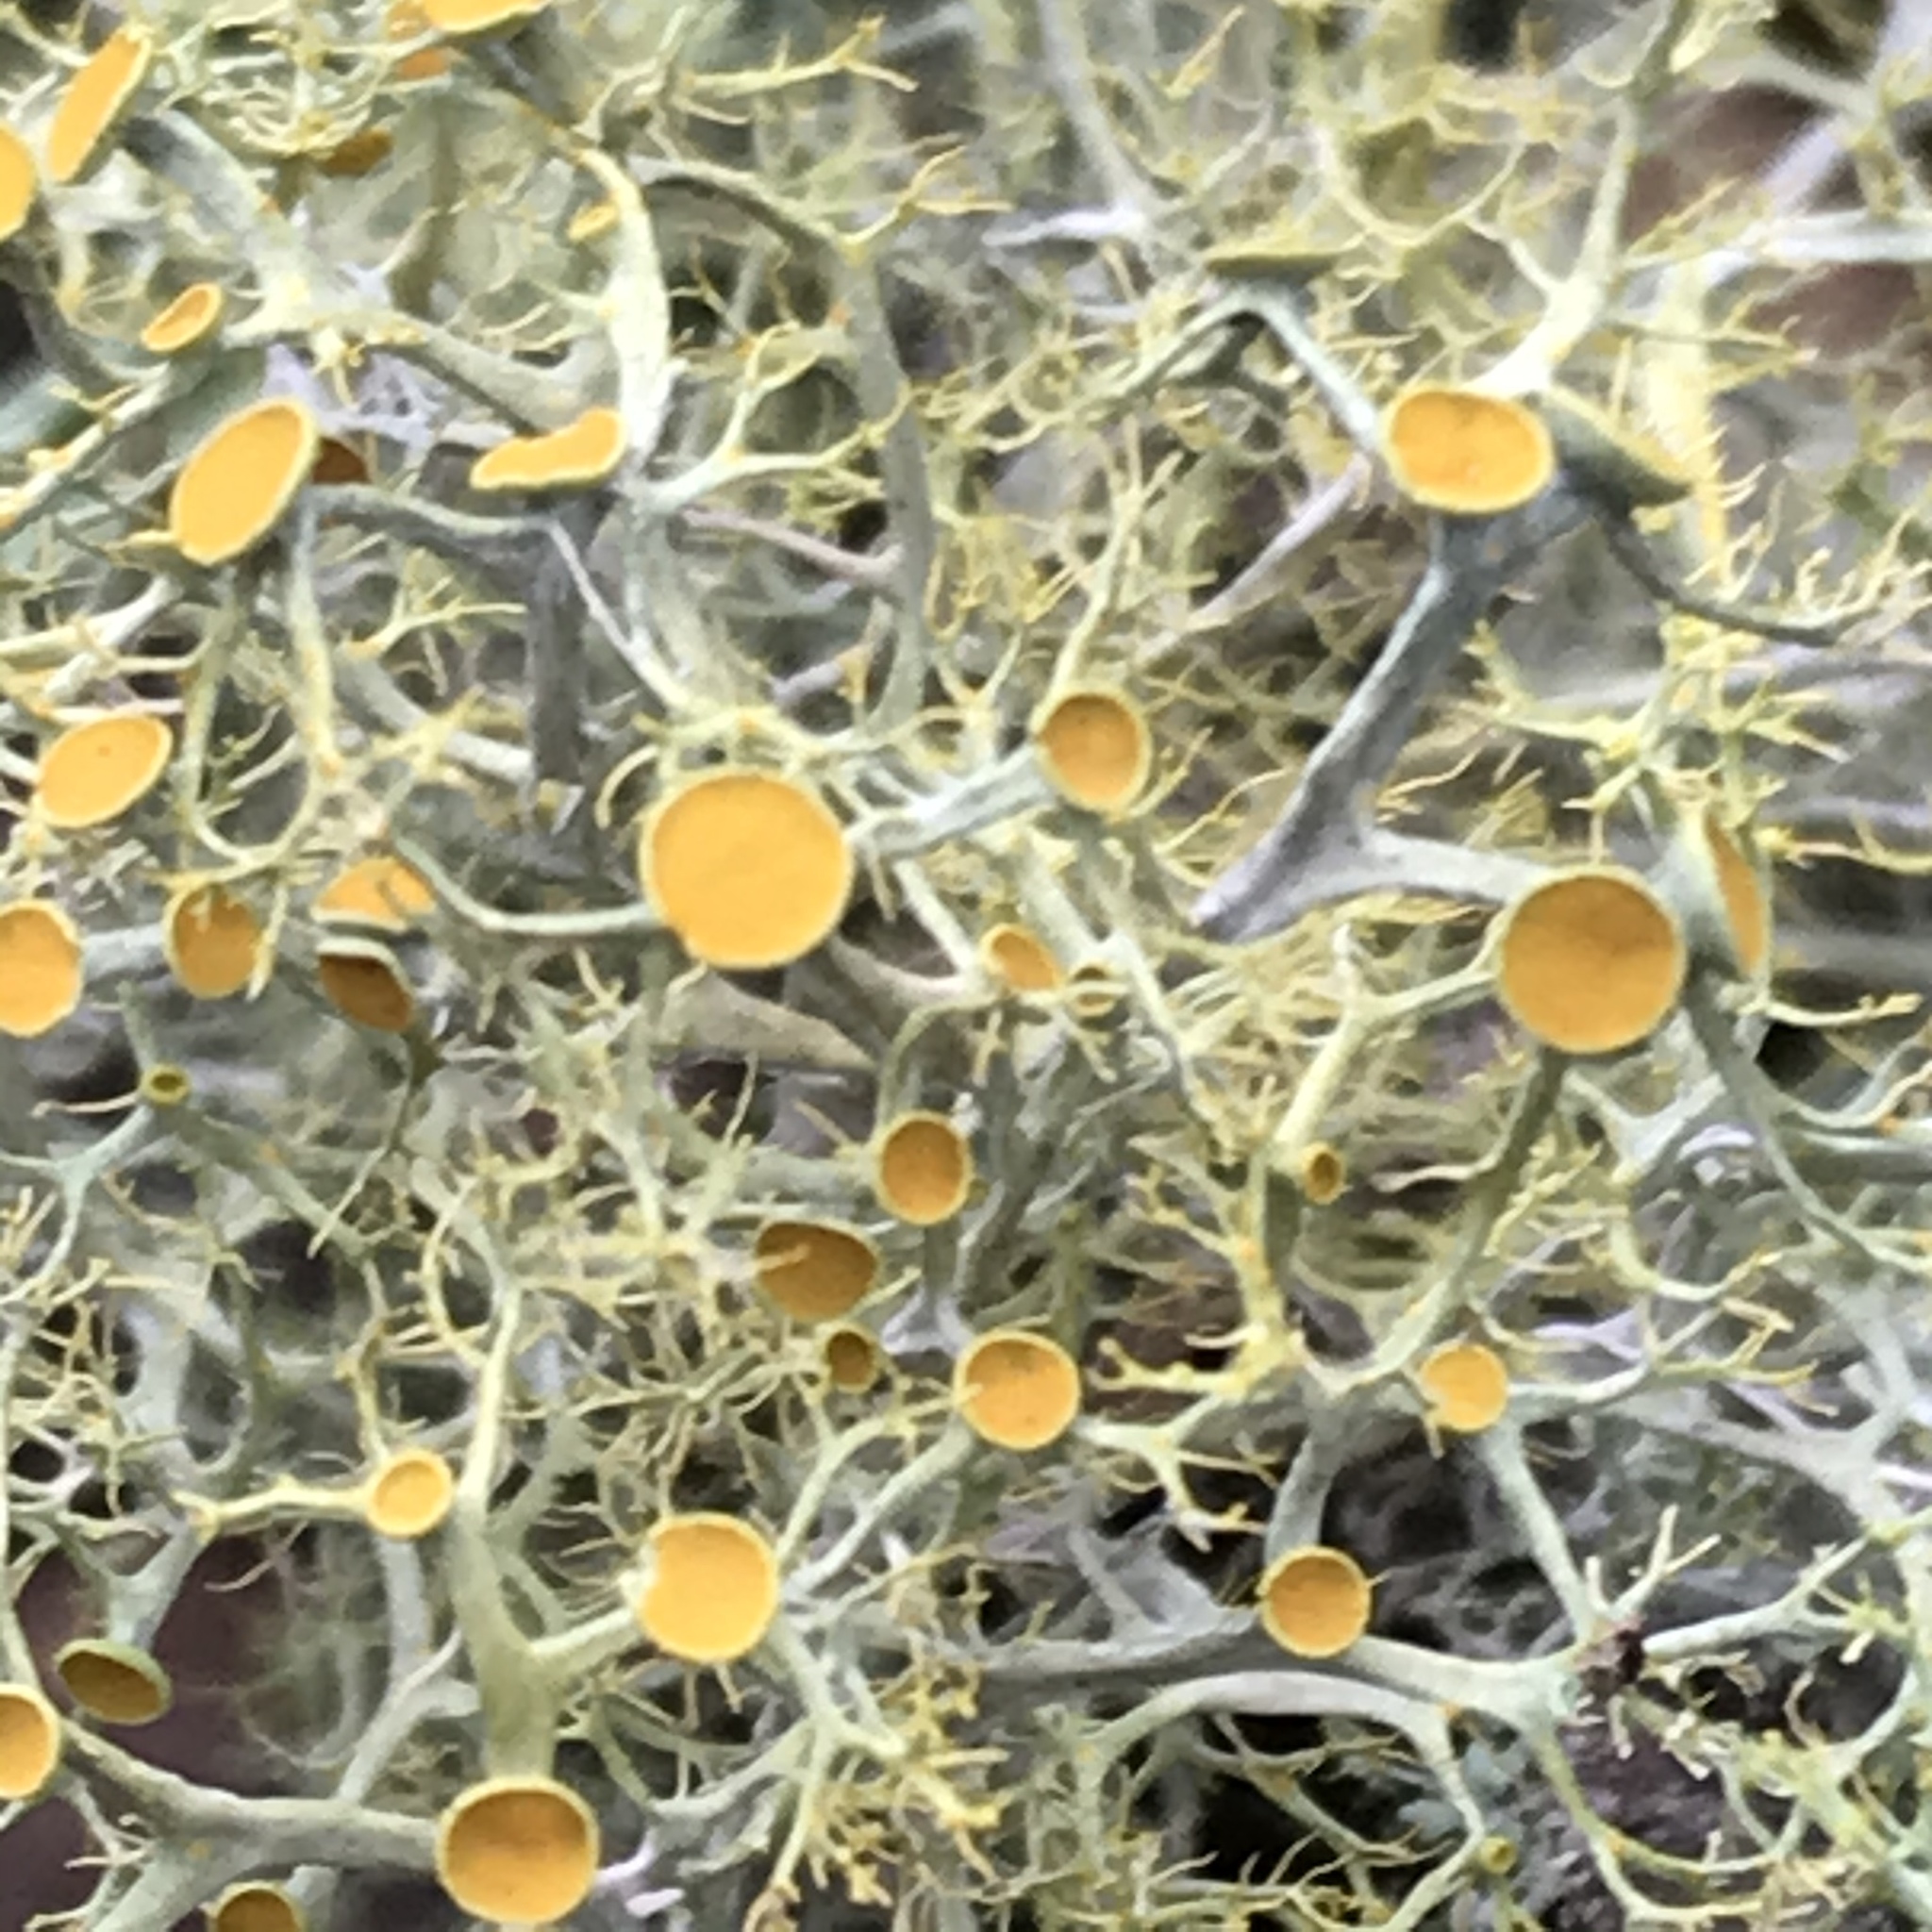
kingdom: Fungi
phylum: Ascomycota
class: Lecanoromycetes
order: Teloschistales
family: Teloschistaceae
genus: Teloschistes
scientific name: Teloschistes exilis
